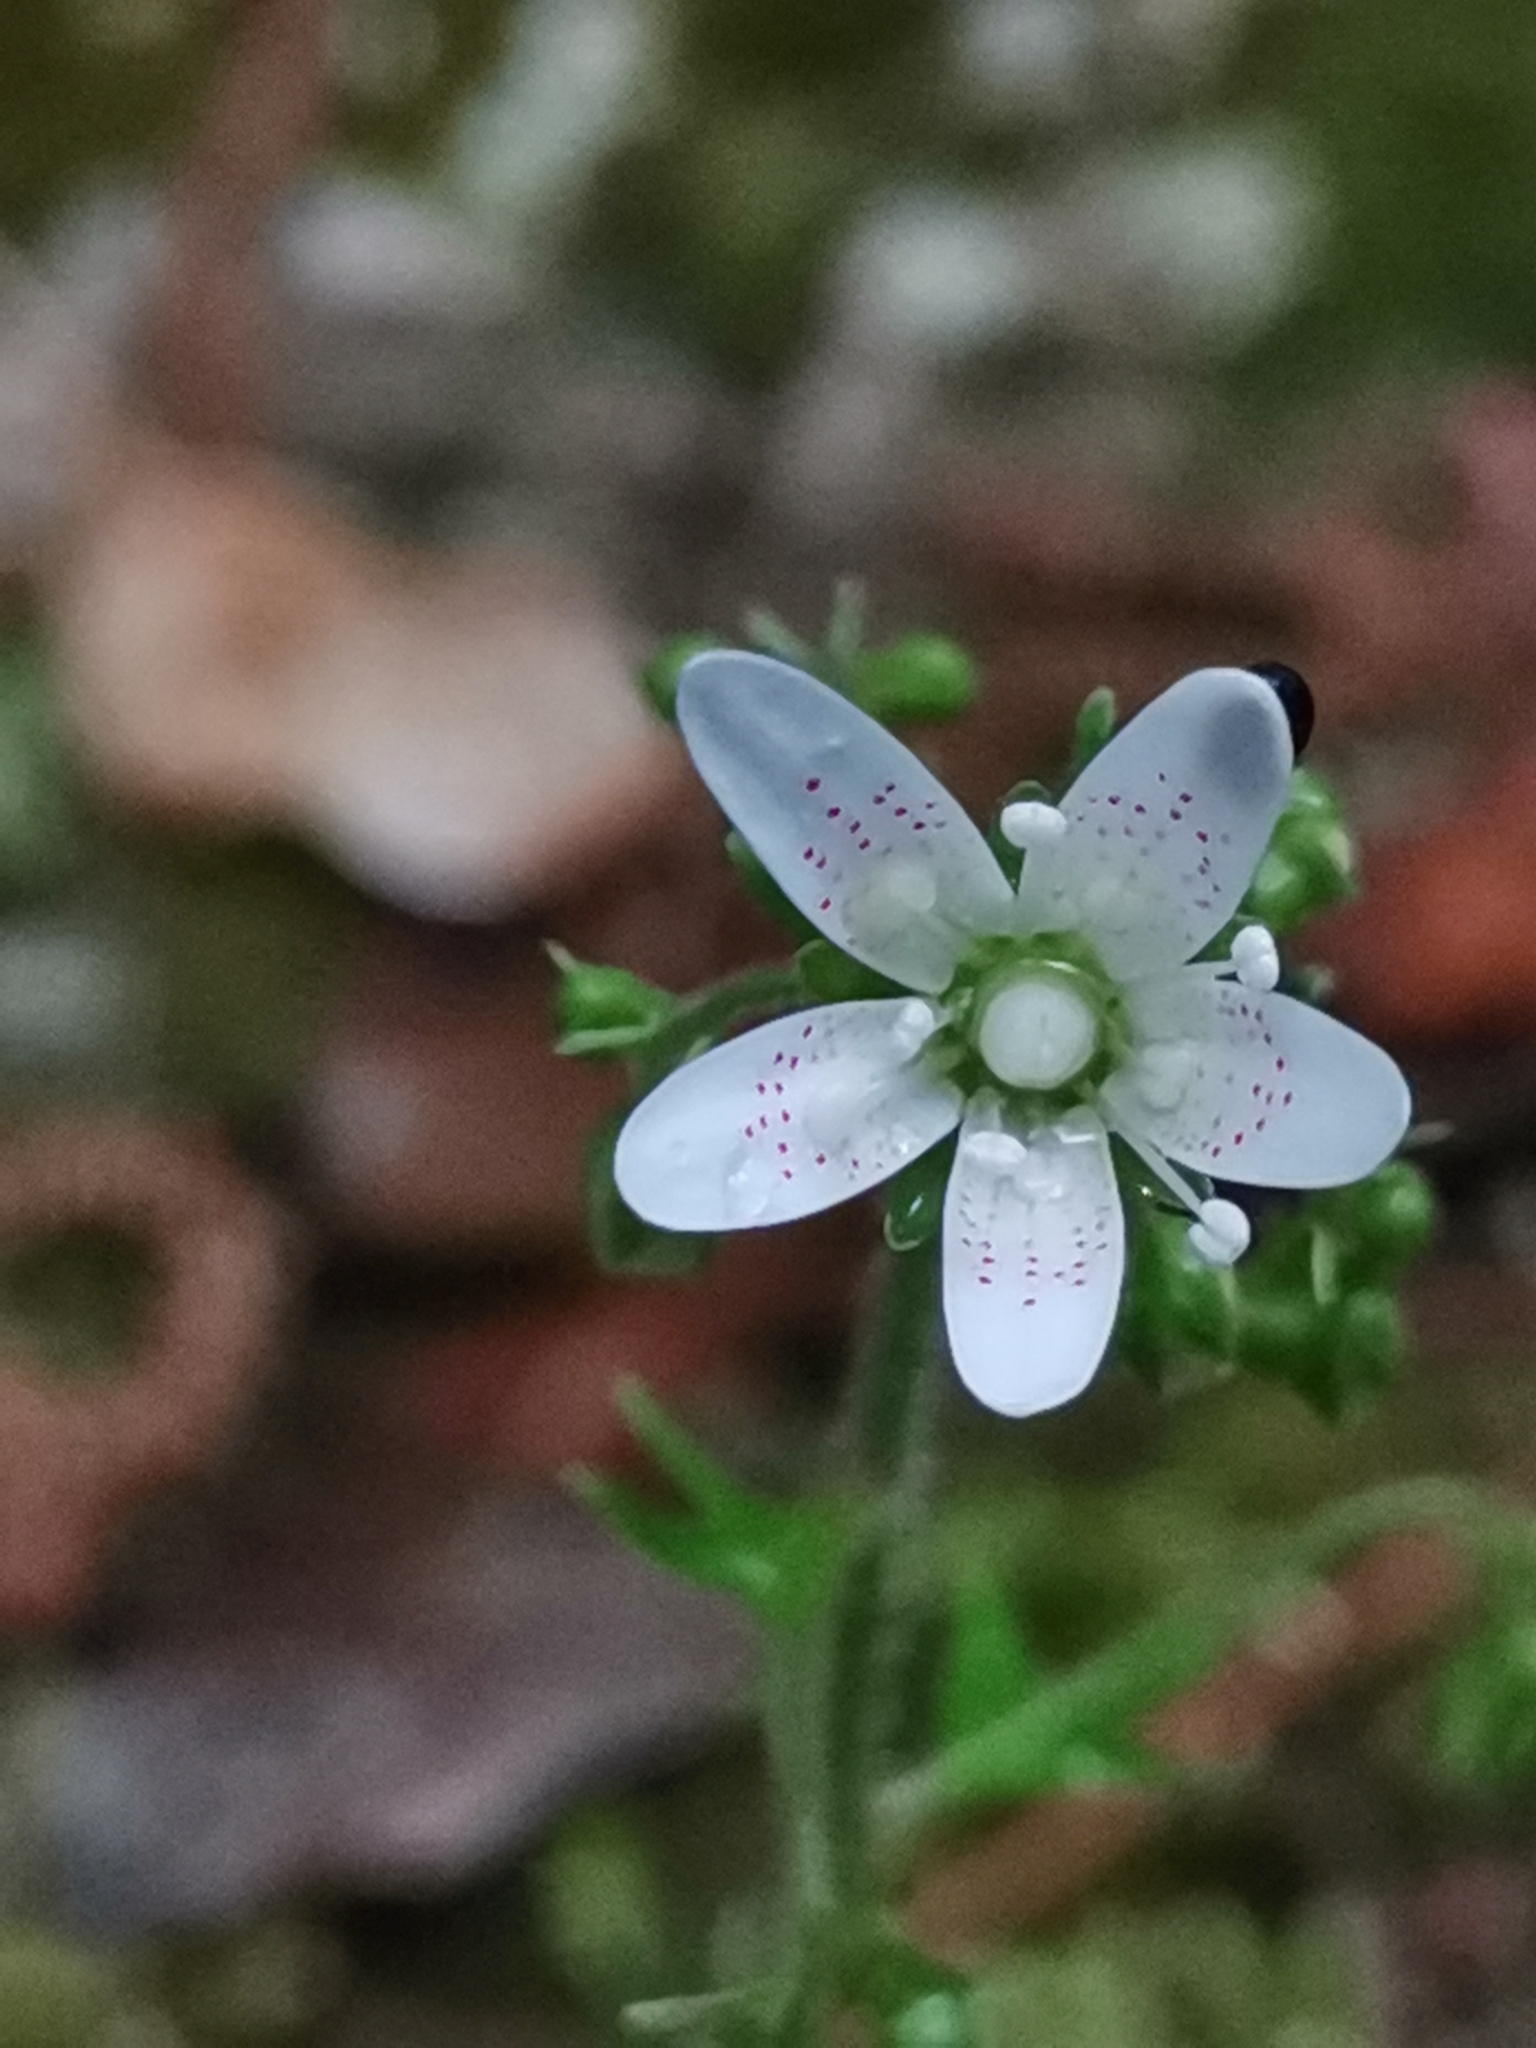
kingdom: Plantae
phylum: Tracheophyta
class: Magnoliopsida
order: Saxifragales
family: Saxifragaceae
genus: Saxifraga
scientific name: Saxifraga rotundifolia
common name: Round-leaved saxifrage
